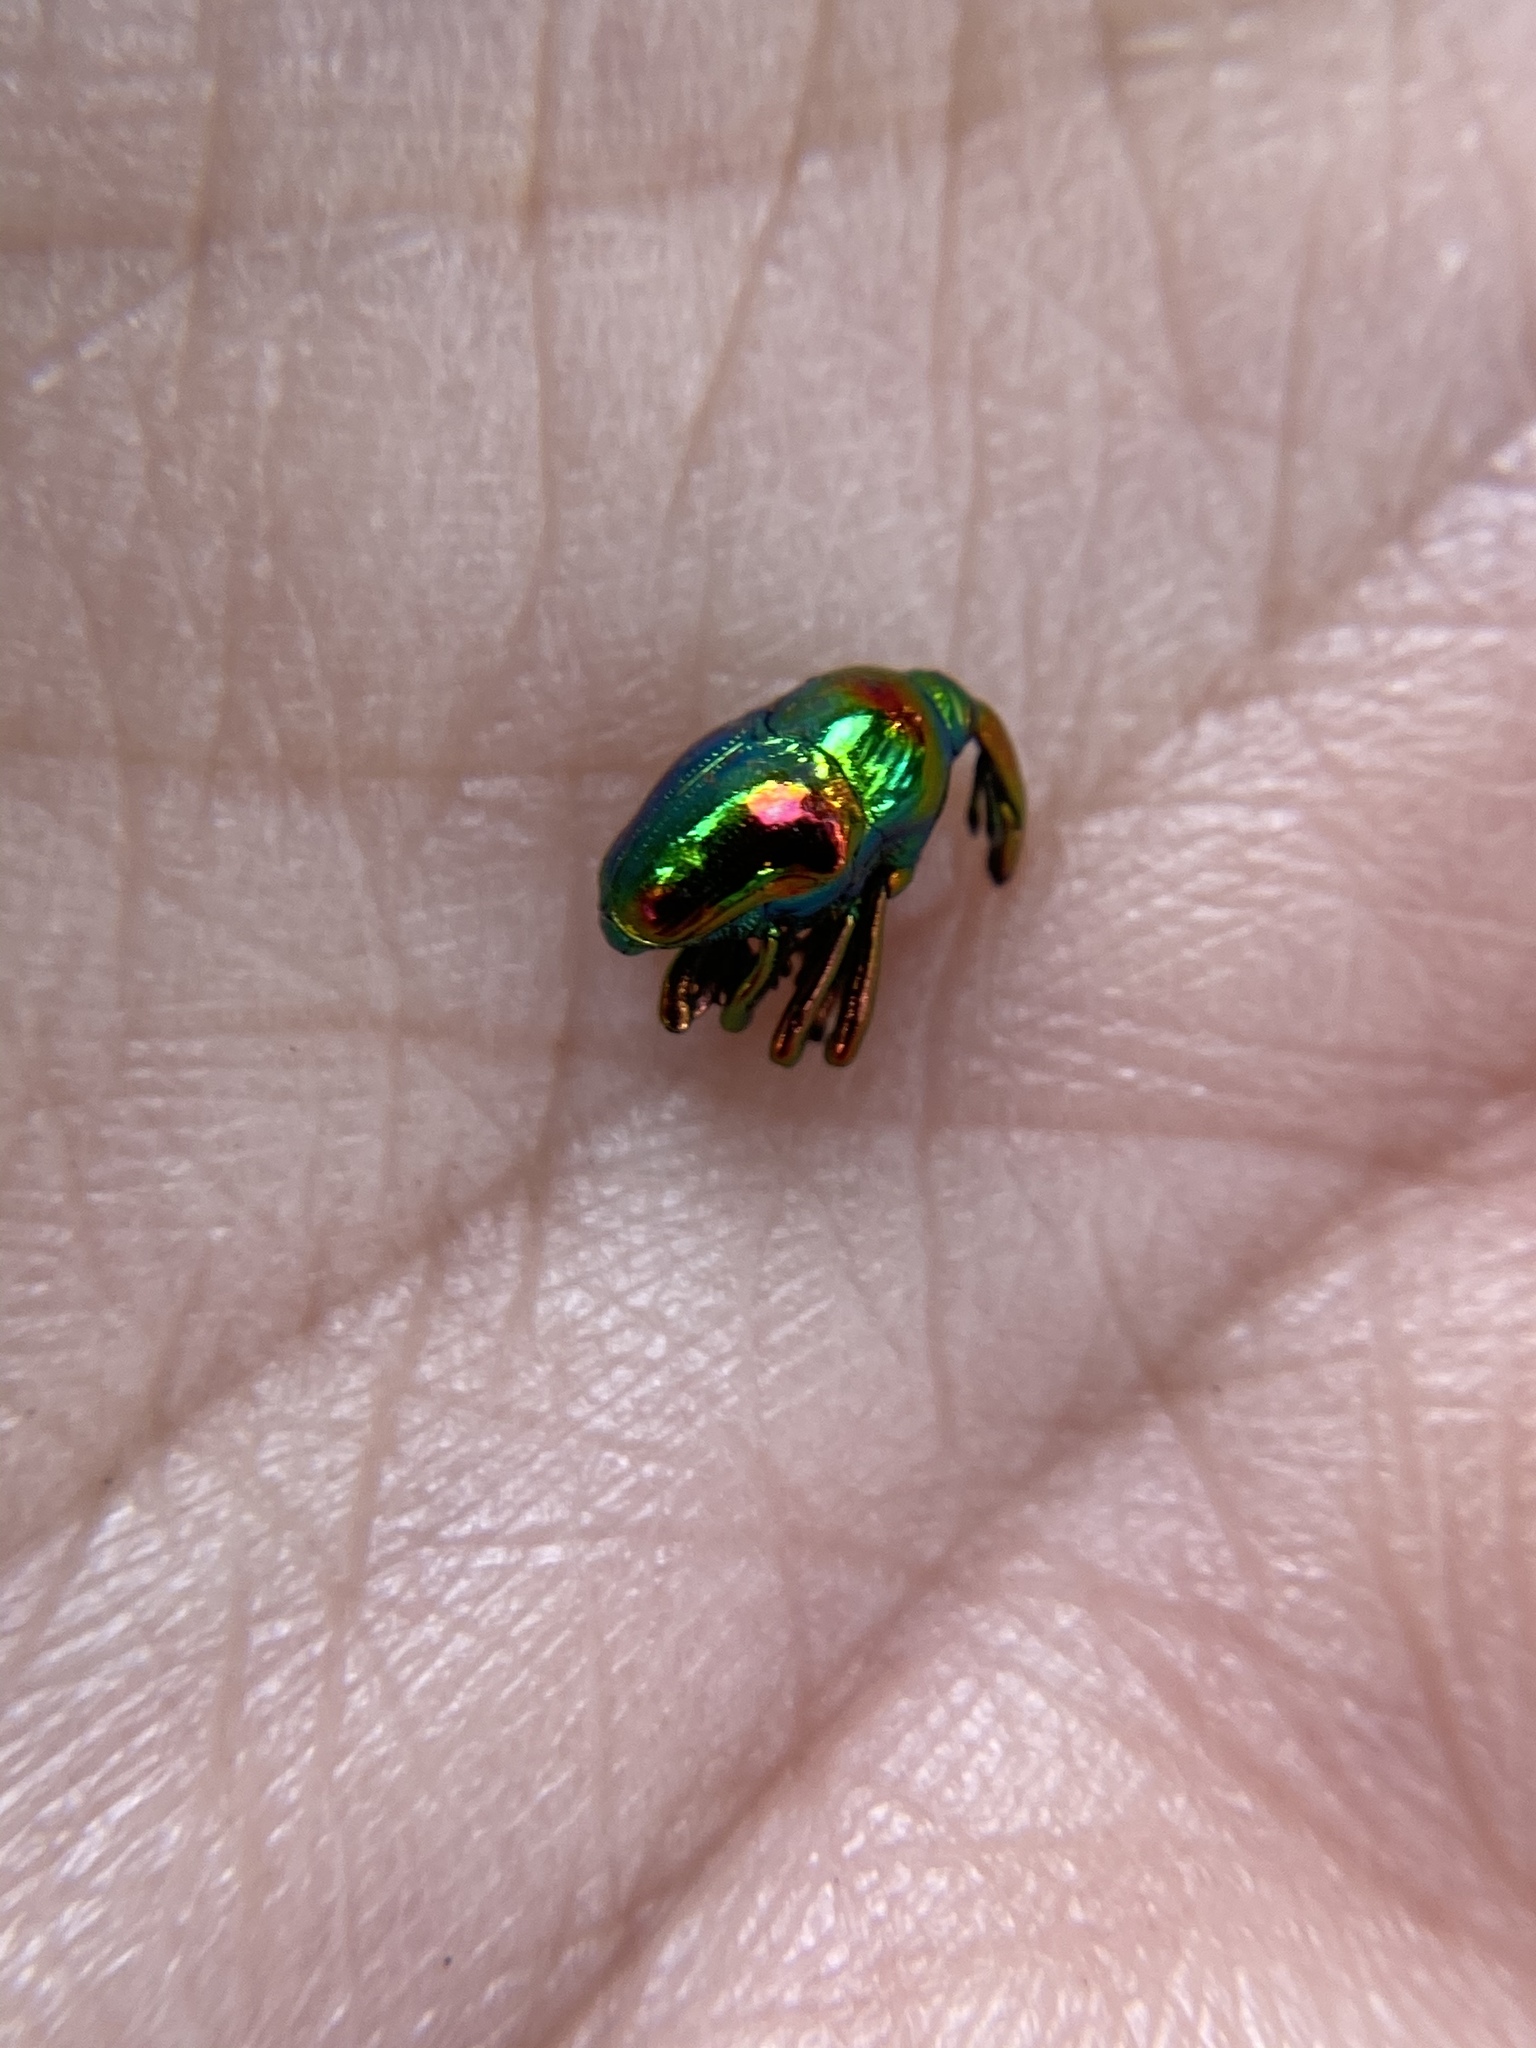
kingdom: Animalia
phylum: Arthropoda
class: Insecta
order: Coleoptera
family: Eurhynchidae
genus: Eurhinus
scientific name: Eurhinus magnificus
